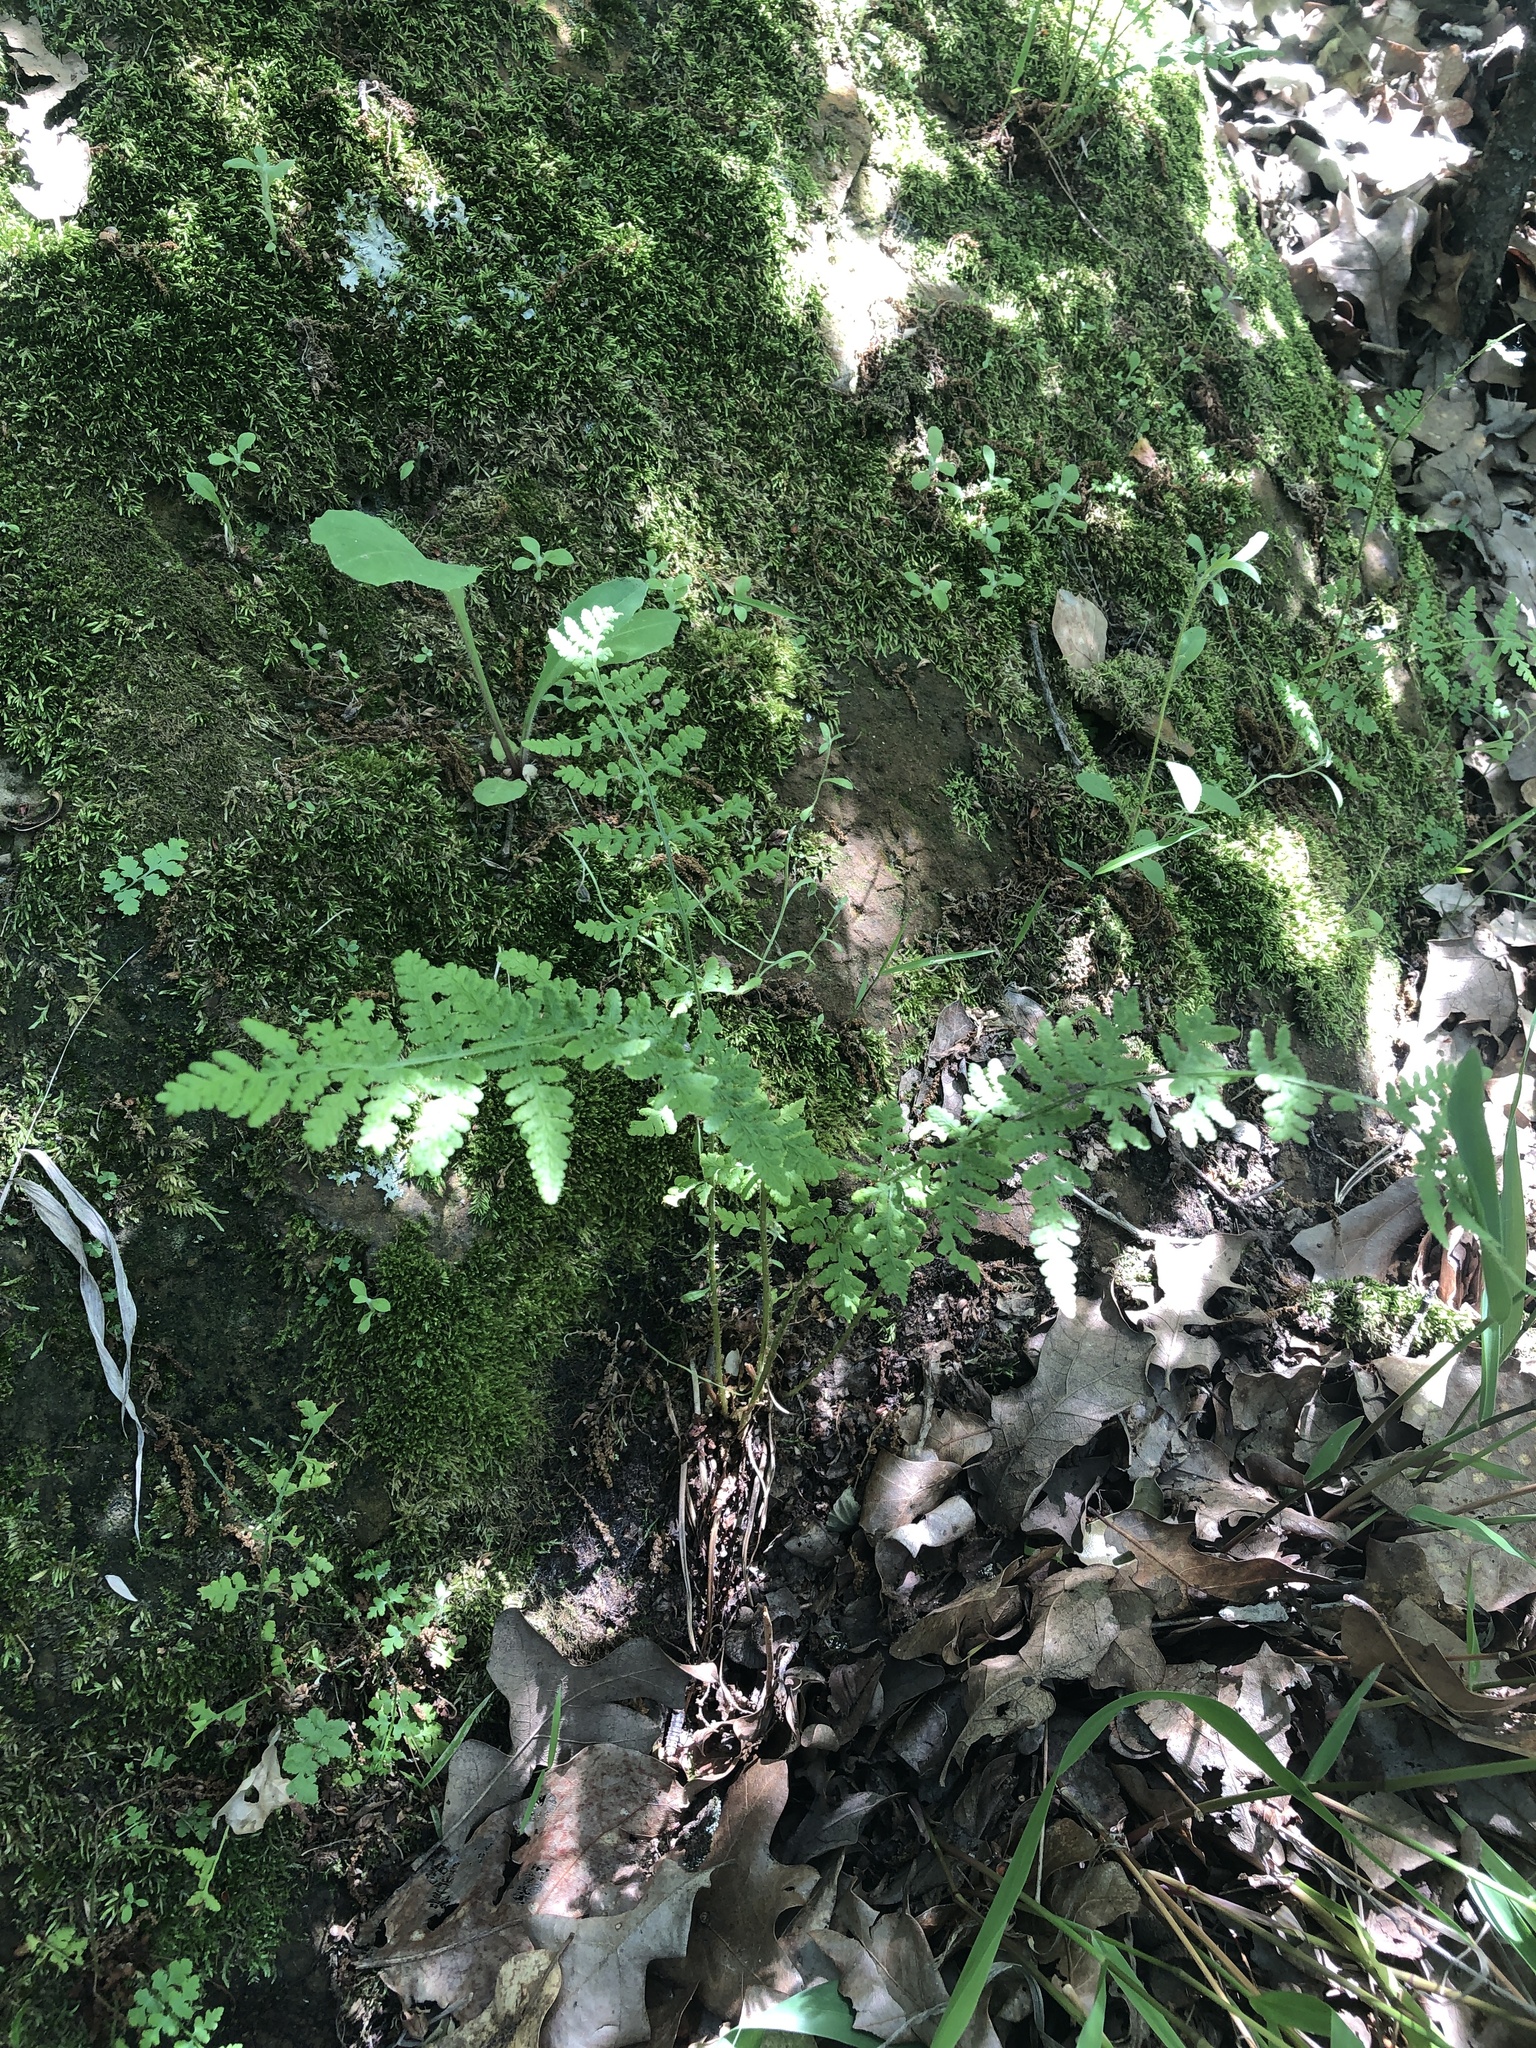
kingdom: Plantae
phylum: Tracheophyta
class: Polypodiopsida
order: Polypodiales
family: Woodsiaceae
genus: Physematium
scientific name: Physematium obtusum
